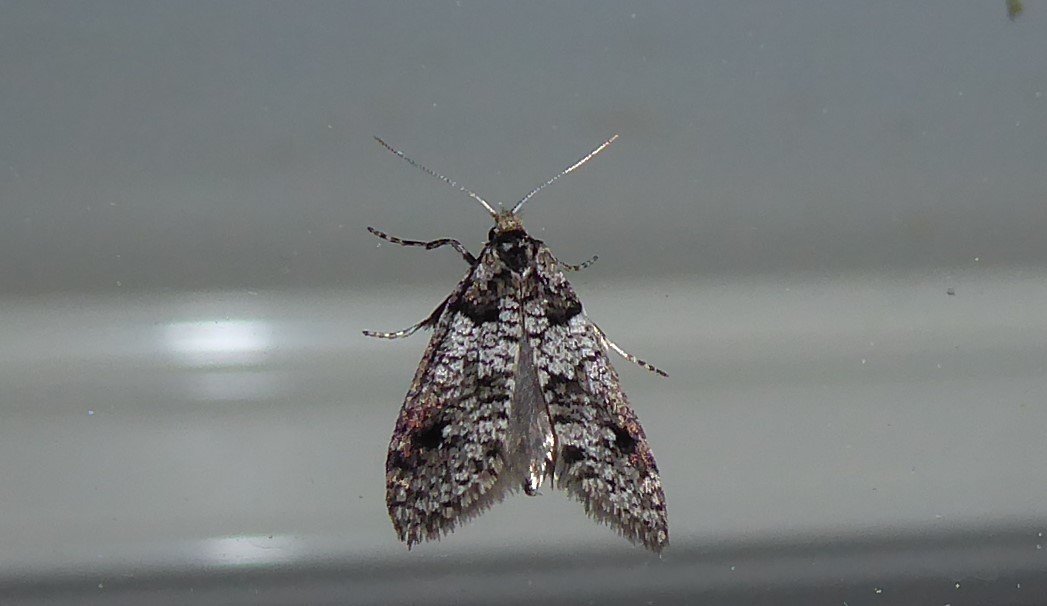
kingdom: Animalia
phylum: Arthropoda
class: Insecta
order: Lepidoptera
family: Psychidae
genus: Lepidoscia
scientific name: Lepidoscia heliochares
